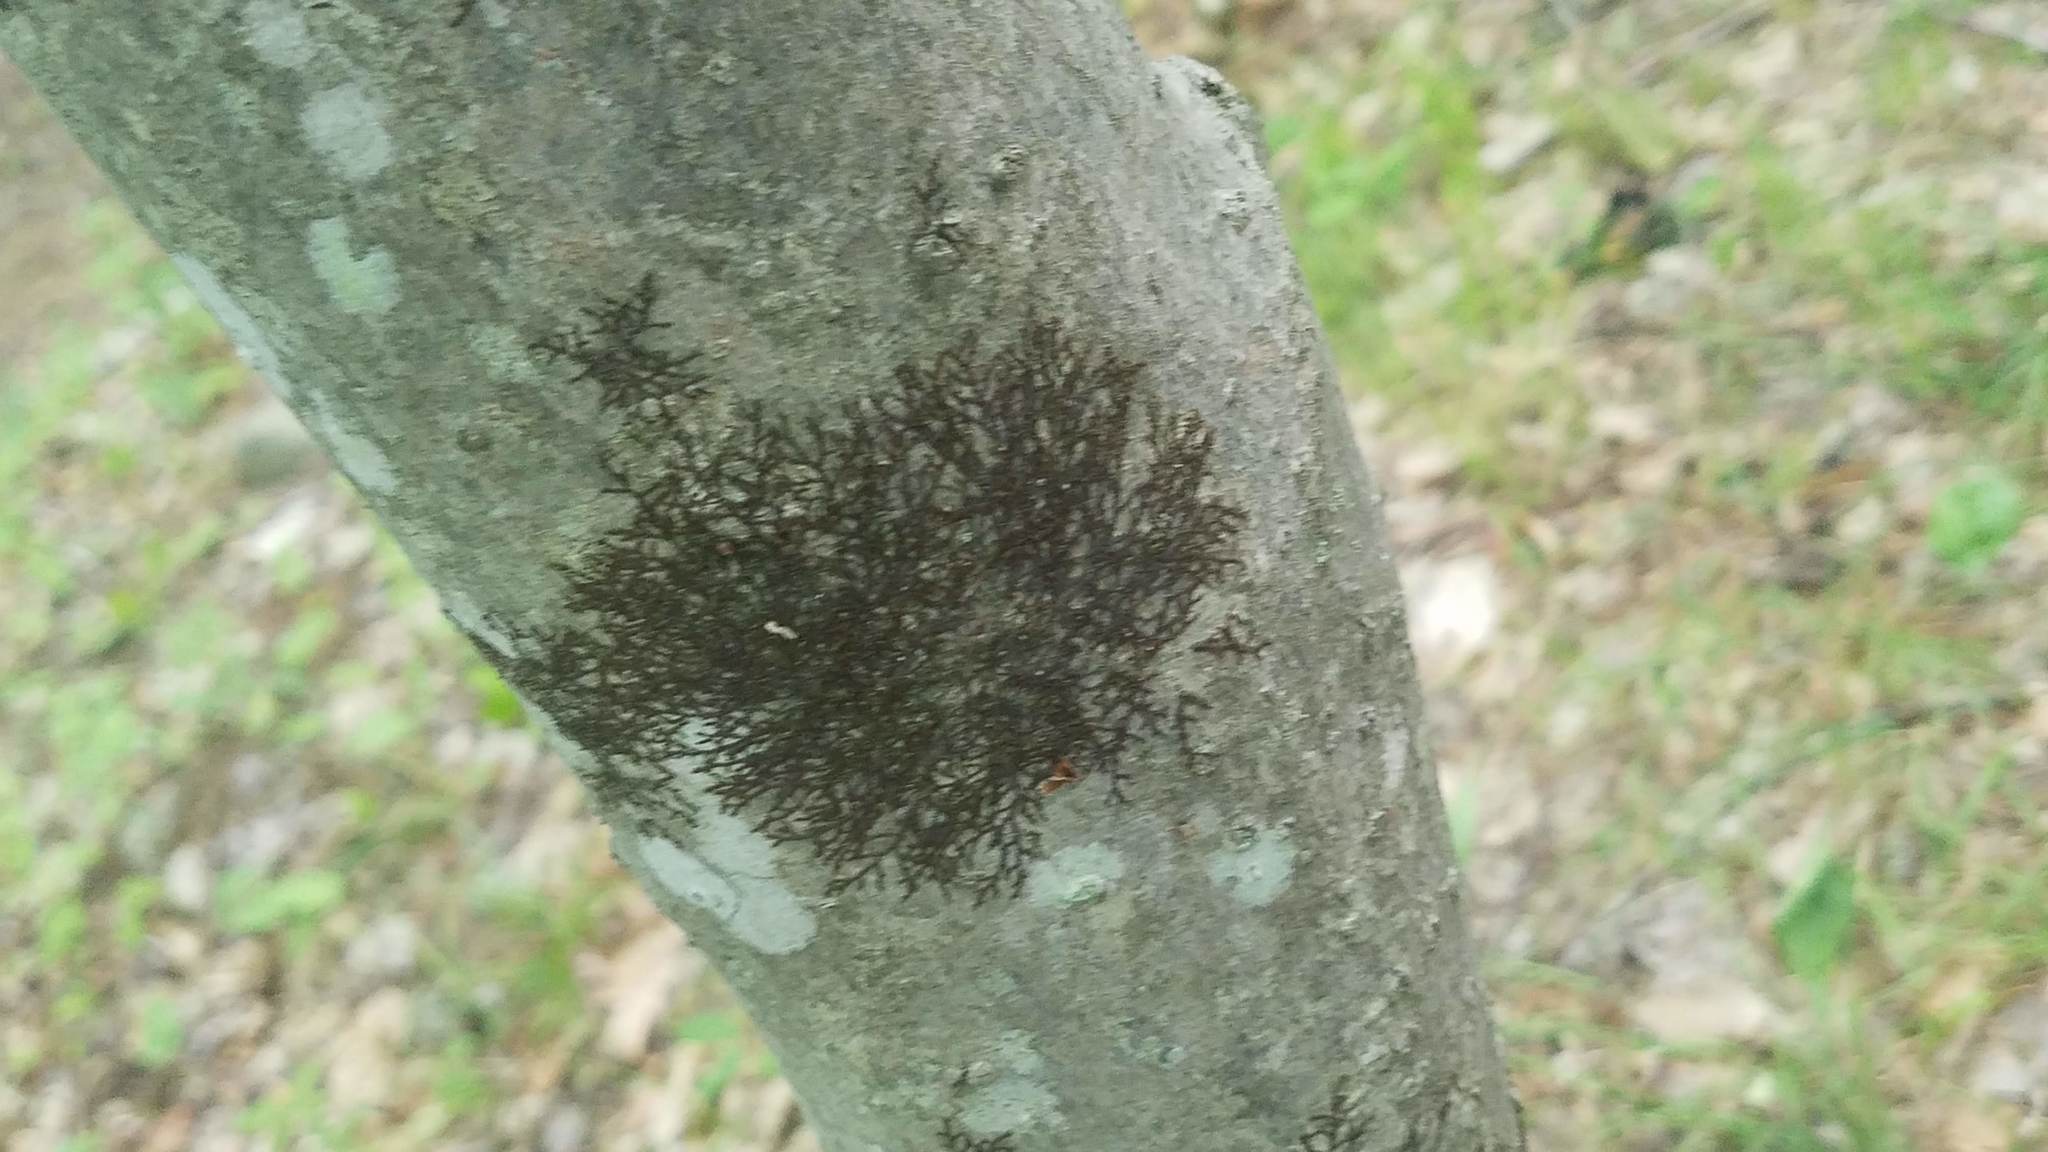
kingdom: Plantae
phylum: Marchantiophyta
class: Jungermanniopsida
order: Porellales
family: Frullaniaceae
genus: Frullania
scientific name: Frullania eboracensis
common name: New york scalewort
